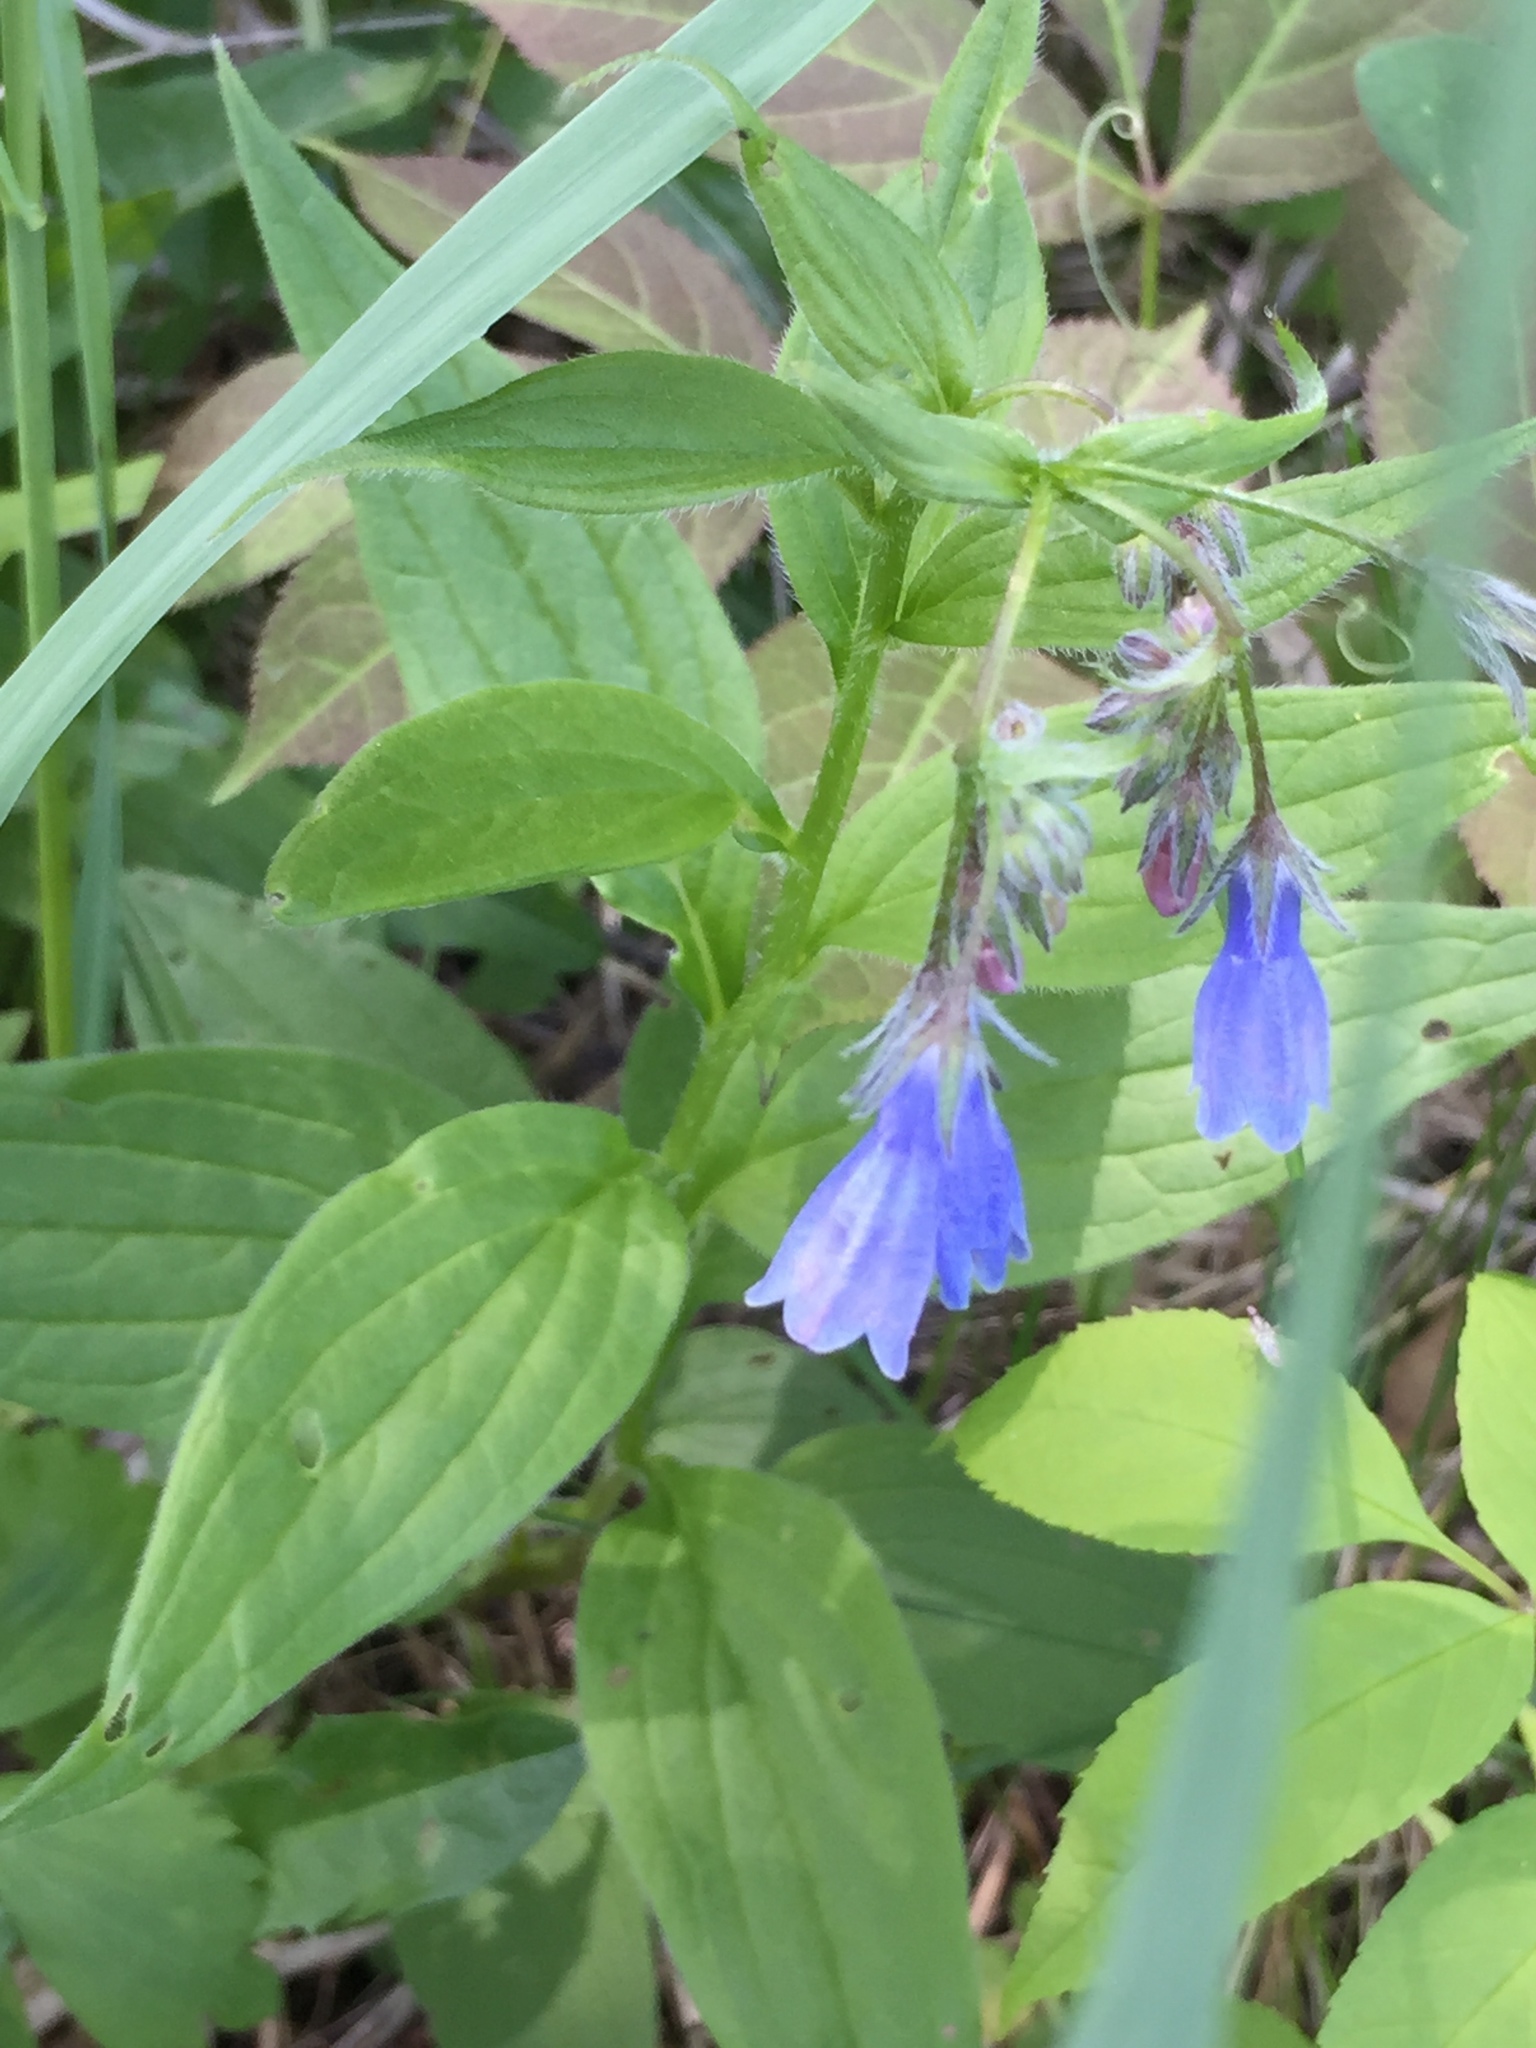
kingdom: Plantae
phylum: Tracheophyta
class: Magnoliopsida
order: Boraginales
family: Boraginaceae
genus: Mertensia
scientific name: Mertensia paniculata
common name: Panicled bluebells
